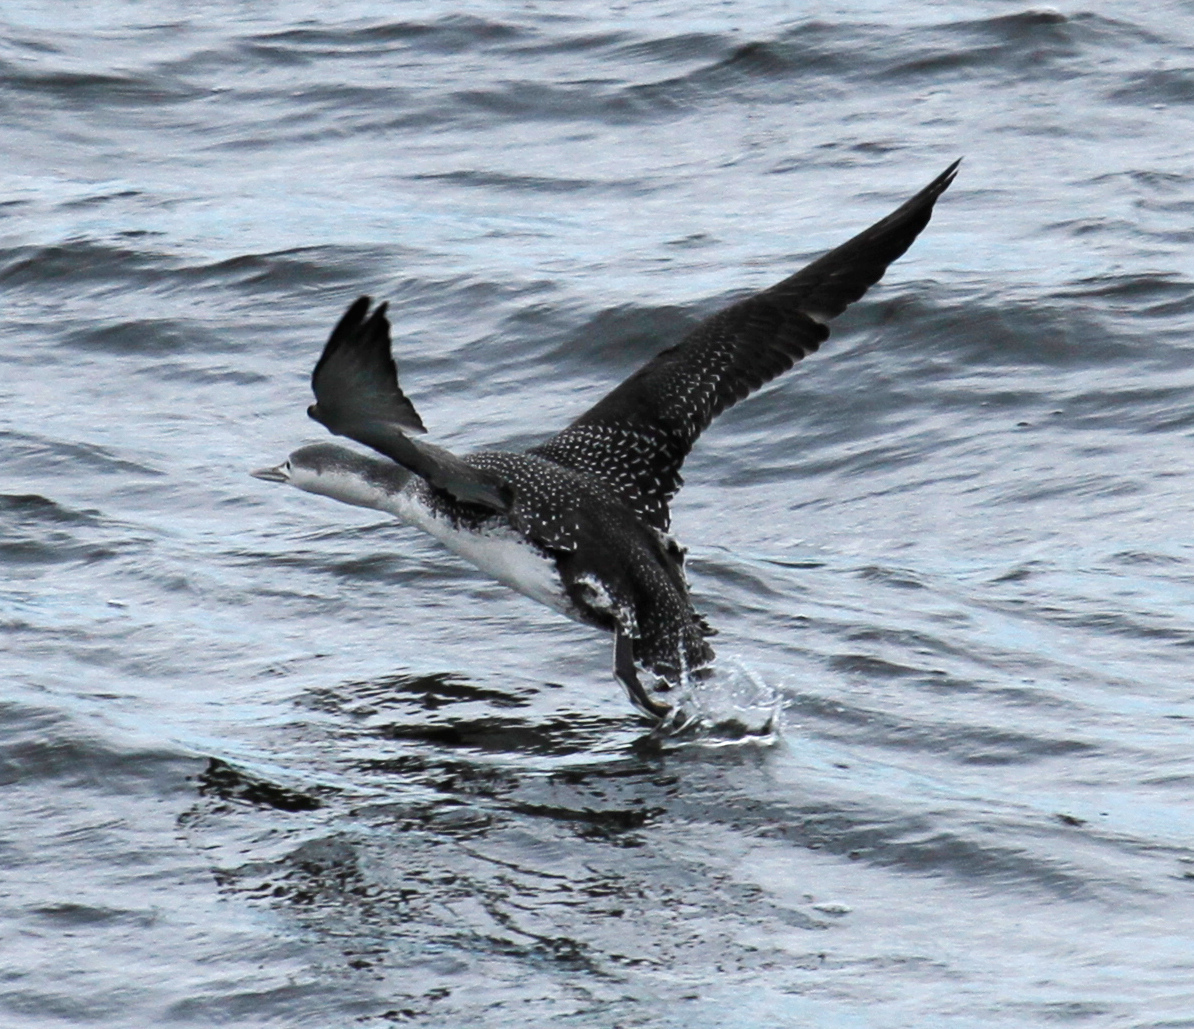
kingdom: Animalia
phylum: Chordata
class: Aves
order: Gaviiformes
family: Gaviidae
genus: Gavia
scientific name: Gavia stellata
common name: Red-throated loon
